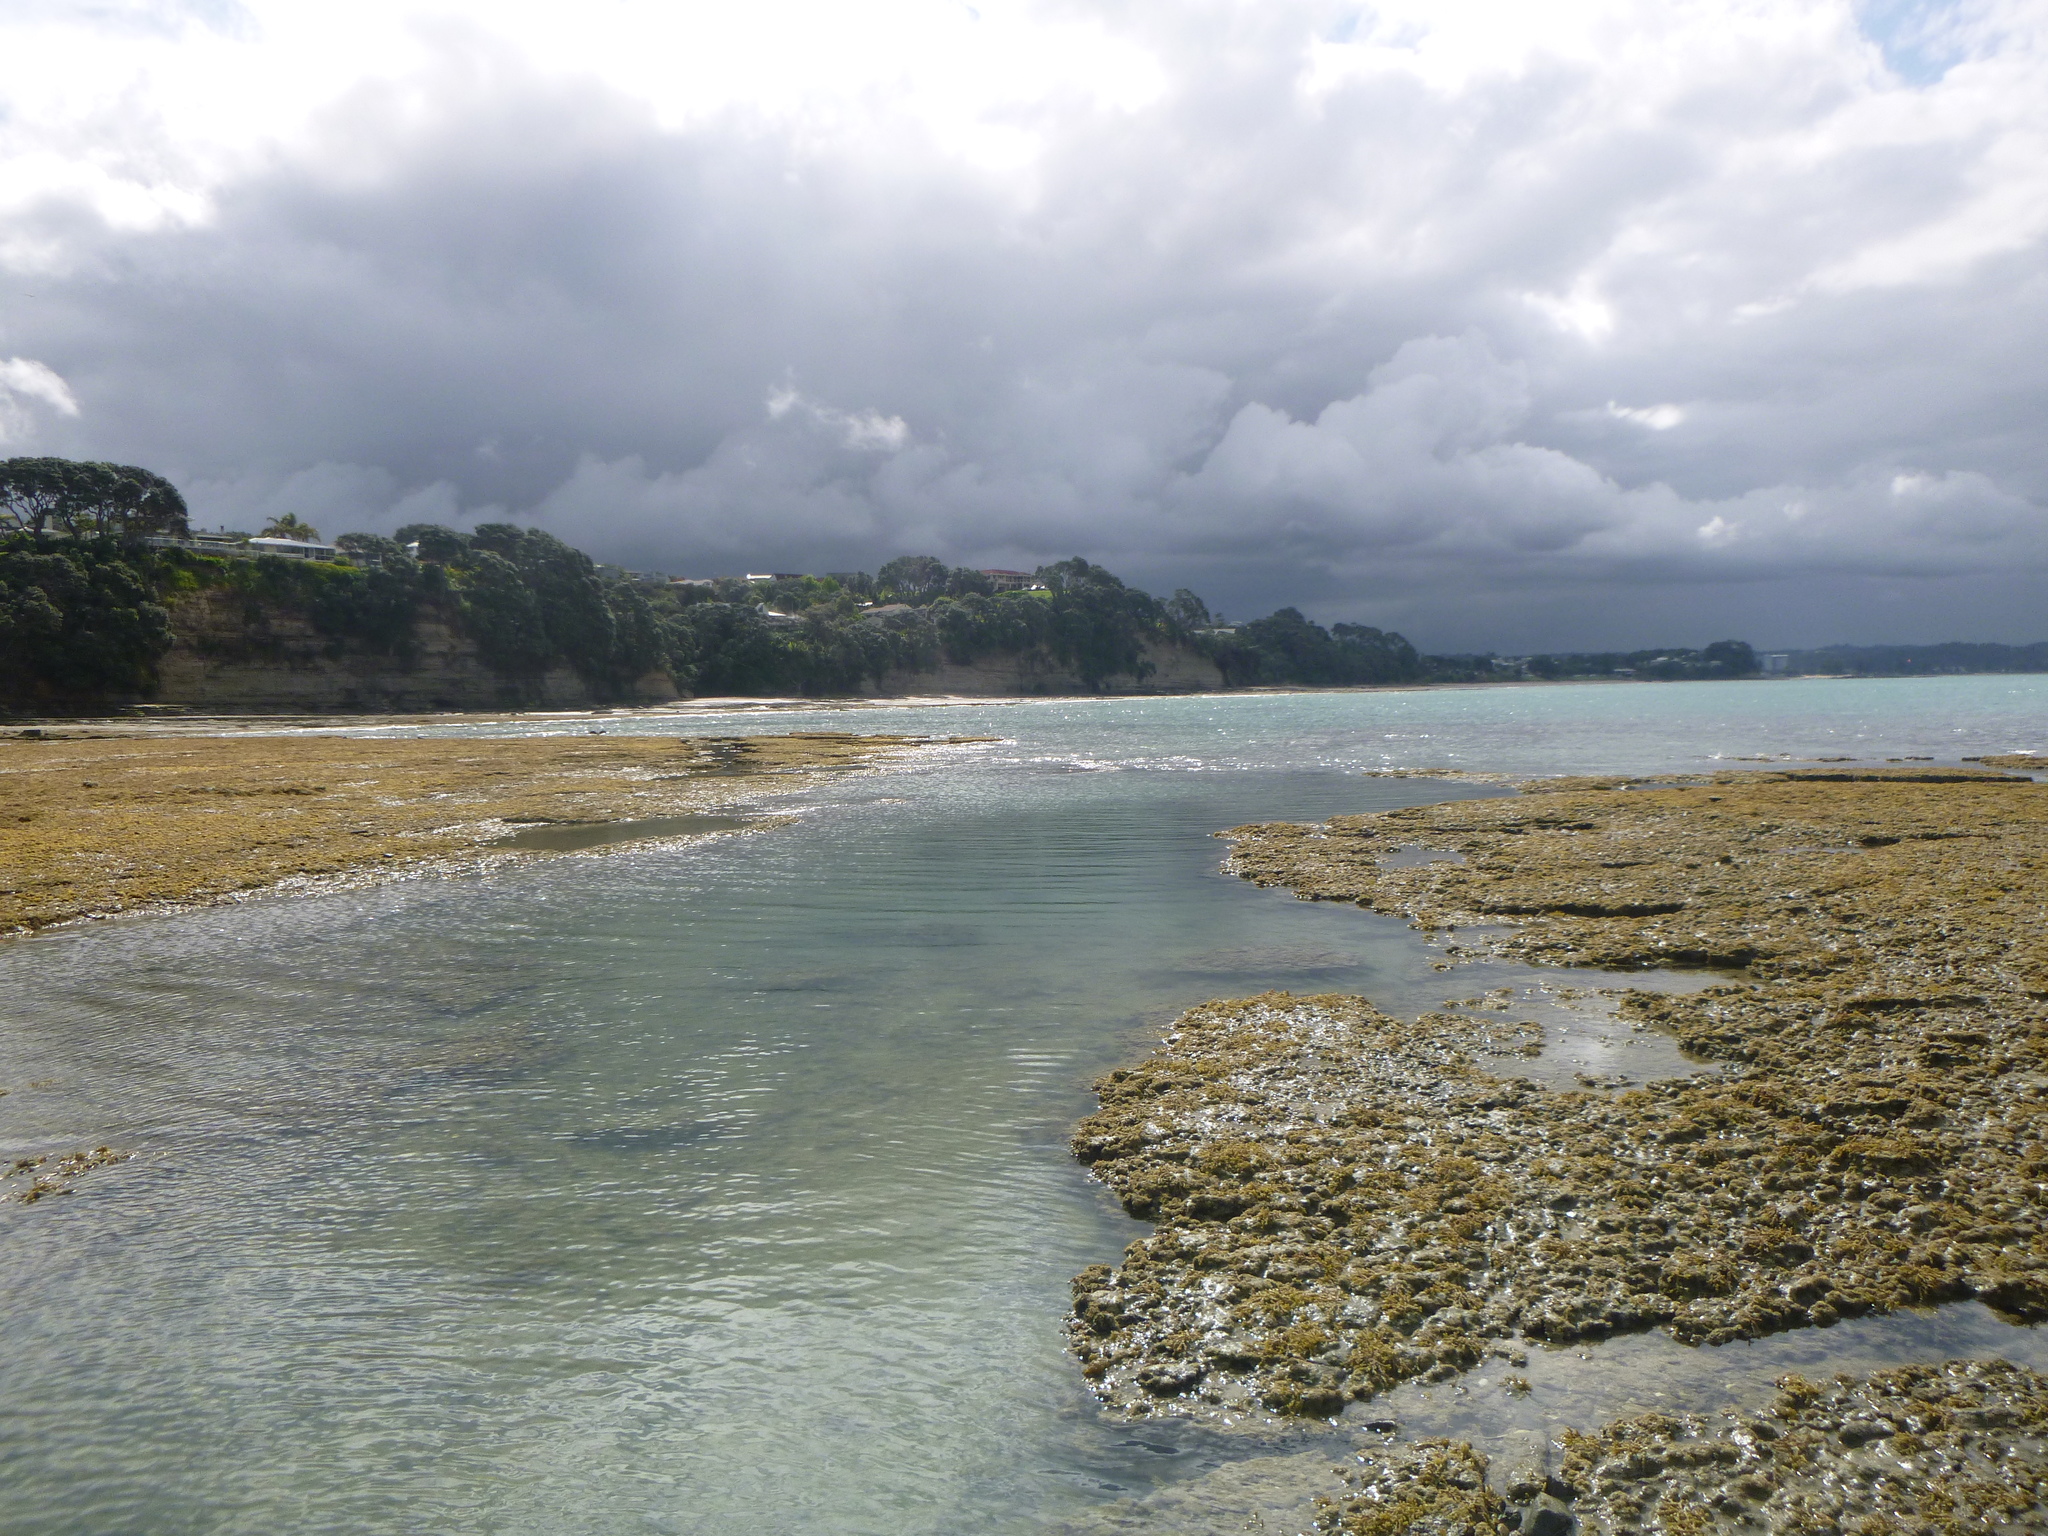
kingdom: Chromista
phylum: Ochrophyta
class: Phaeophyceae
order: Fucales
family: Hormosiraceae
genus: Hormosira
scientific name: Hormosira banksii
